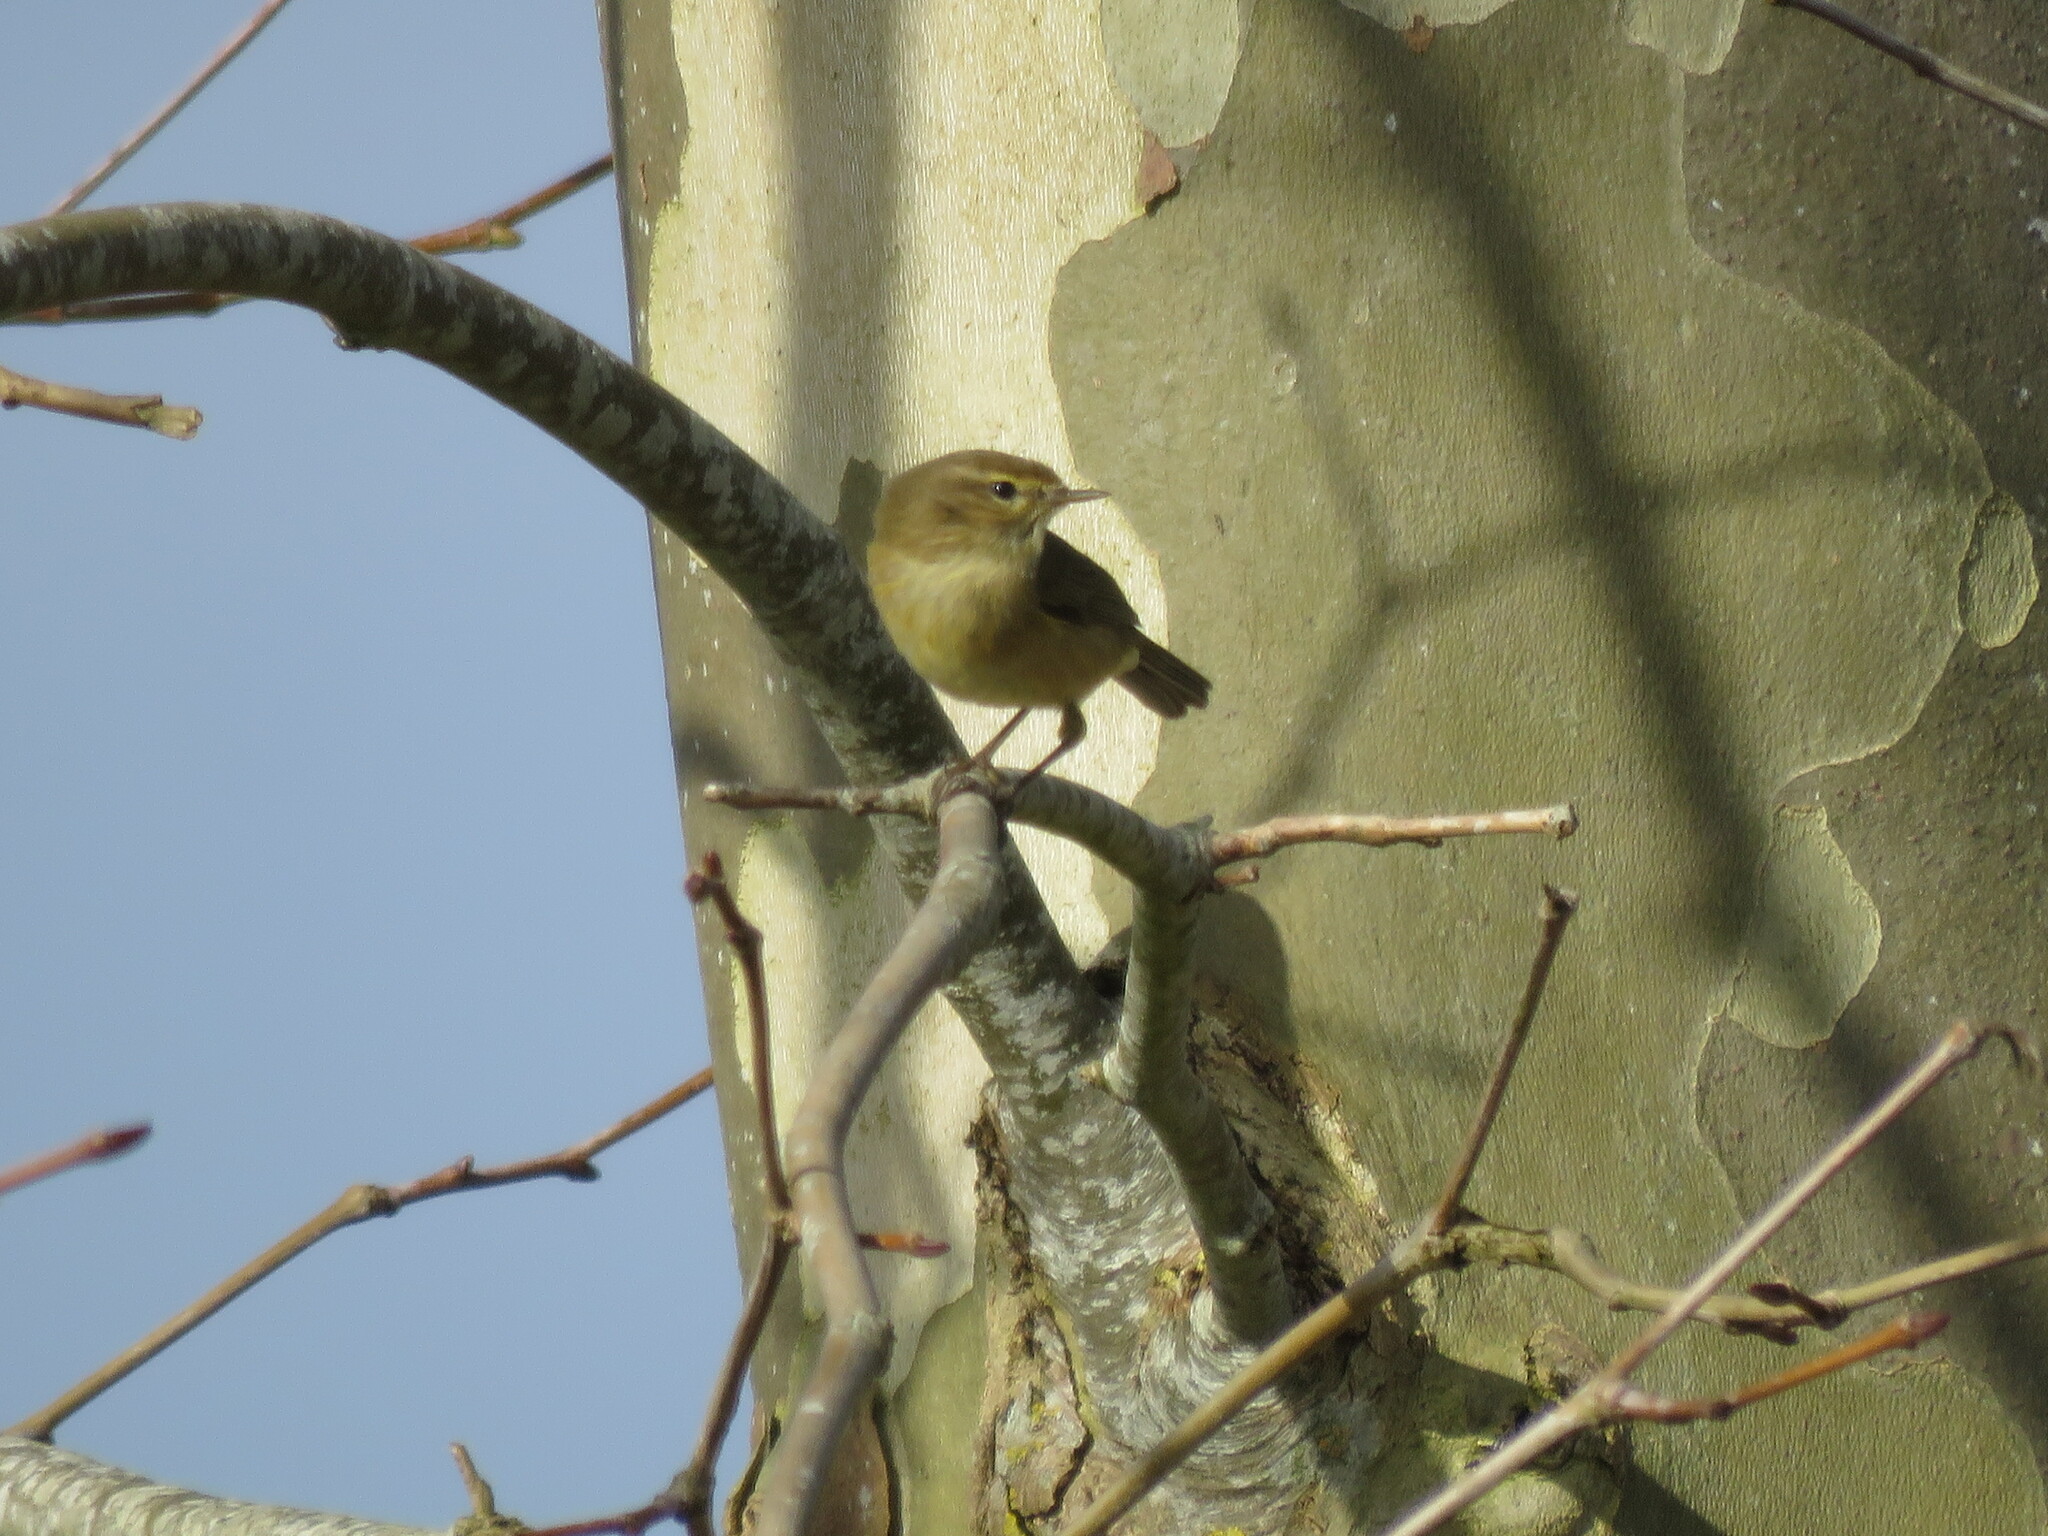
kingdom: Animalia
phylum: Chordata
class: Aves
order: Passeriformes
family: Phylloscopidae
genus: Phylloscopus
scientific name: Phylloscopus collybita
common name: Common chiffchaff
